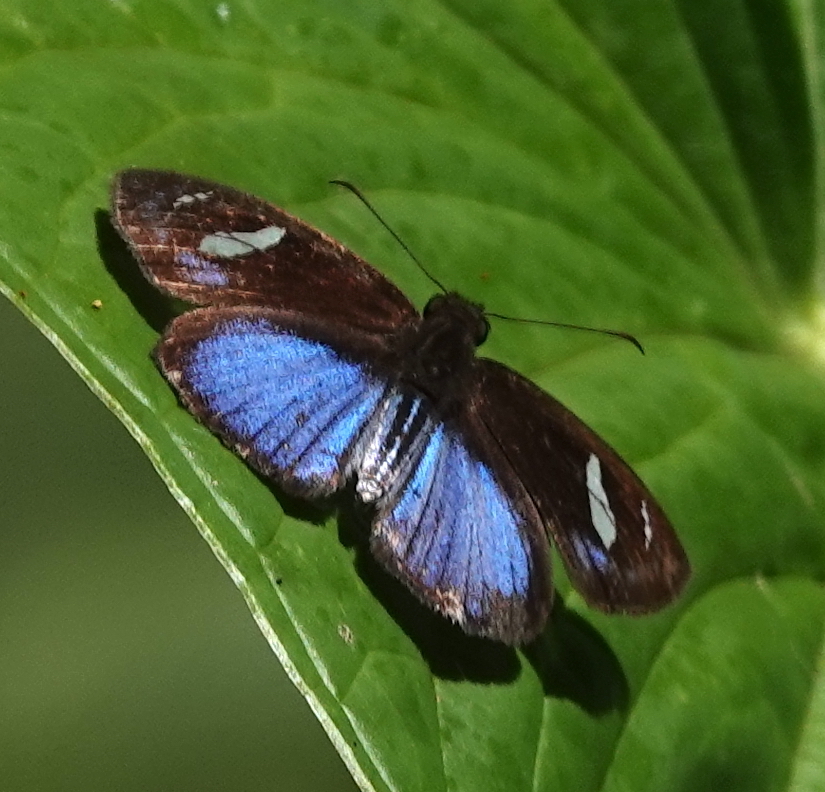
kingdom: Animalia
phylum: Arthropoda
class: Insecta
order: Lepidoptera
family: Hesperiidae
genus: Pythonides
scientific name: Pythonides jovianus
